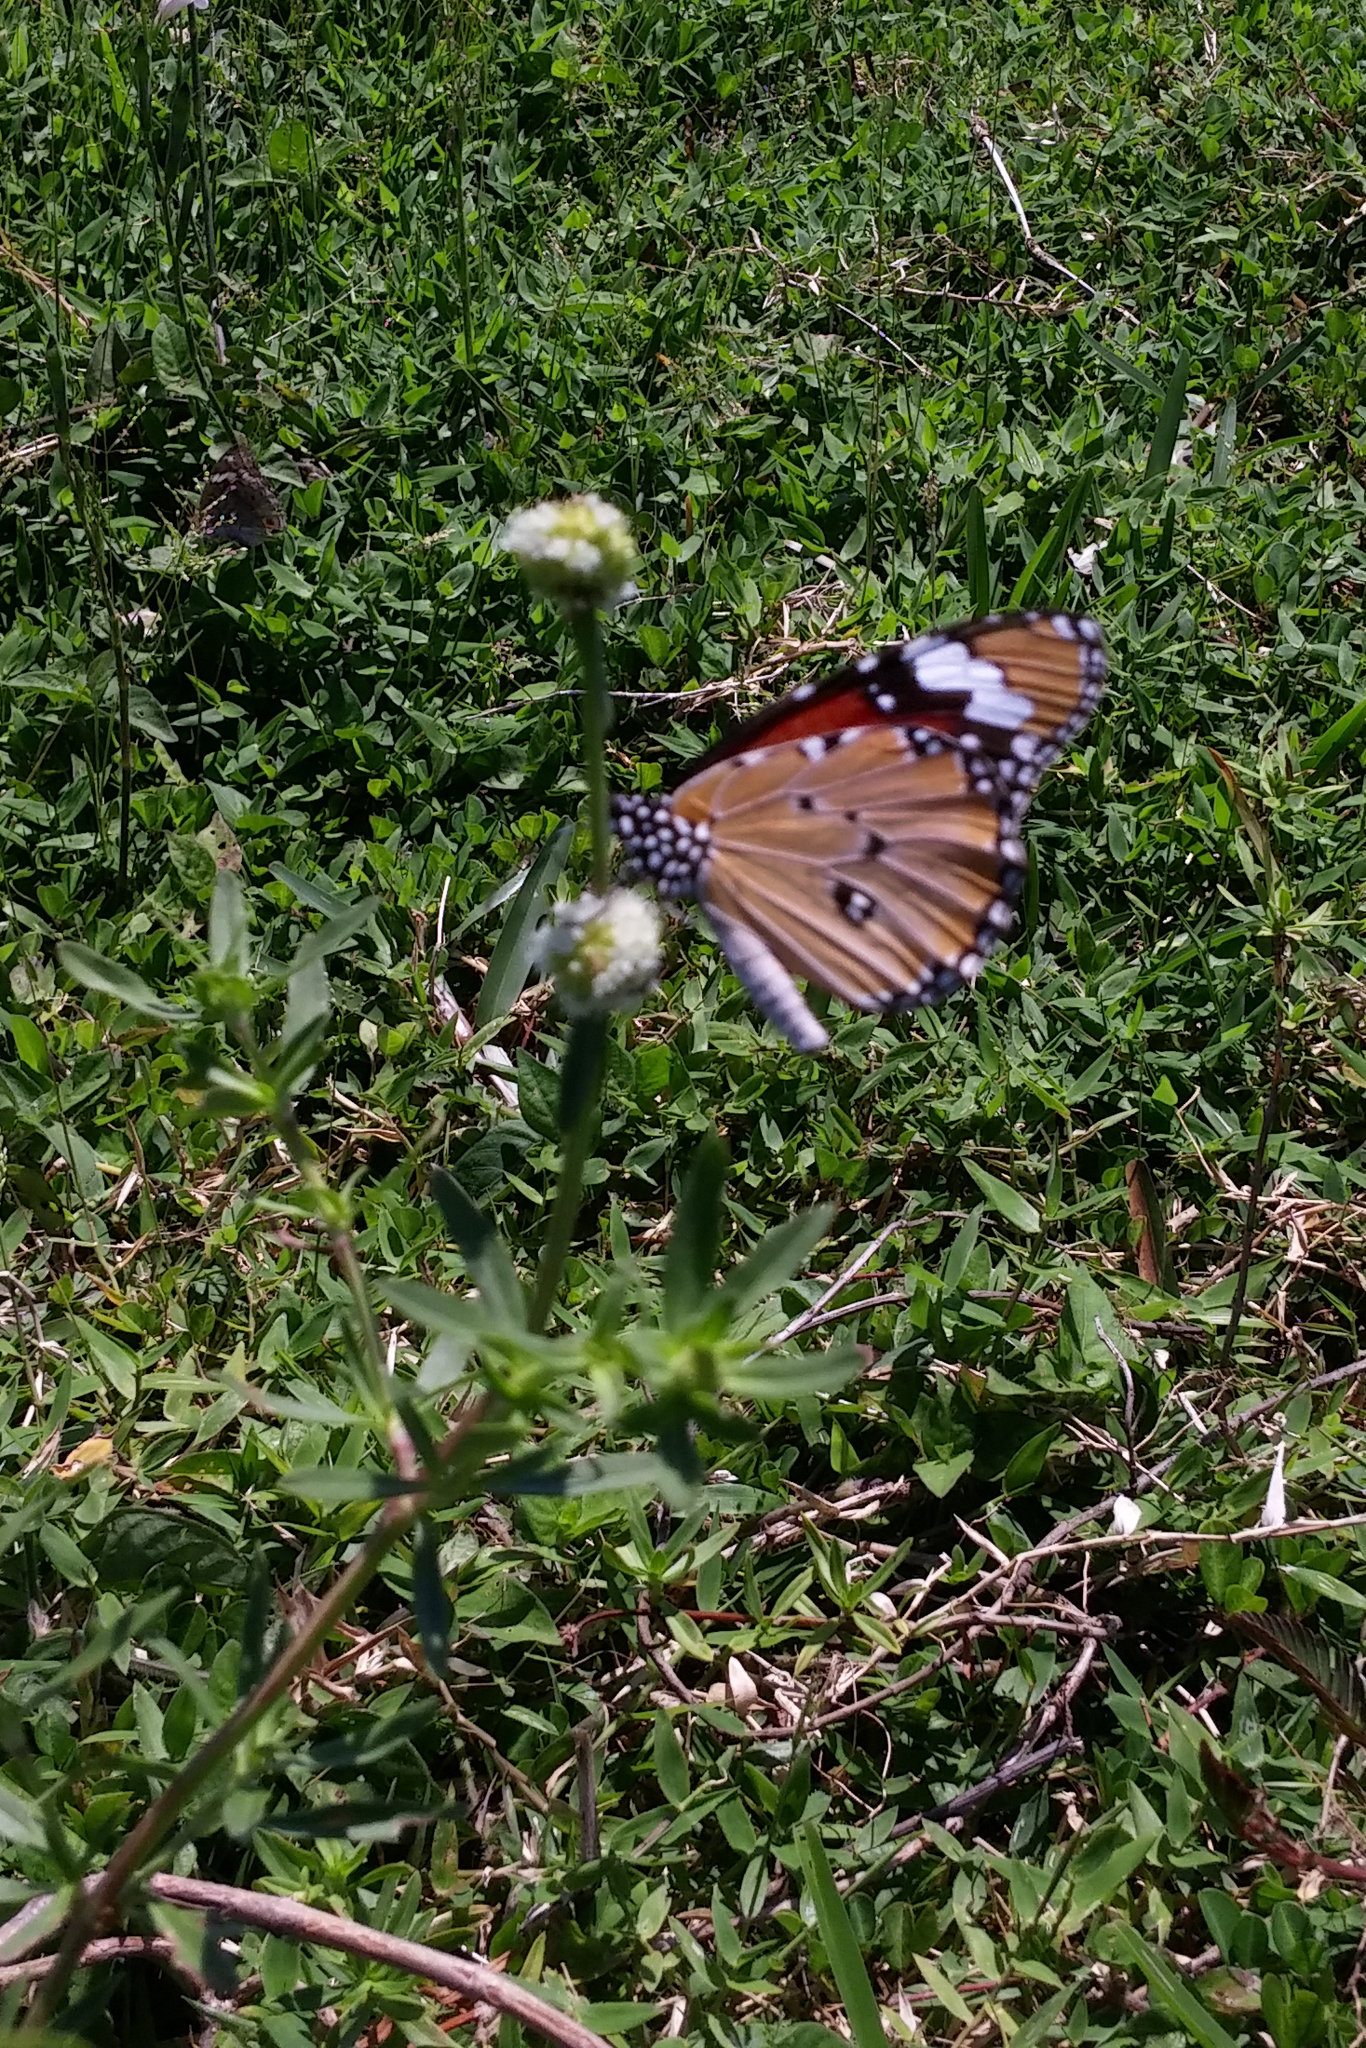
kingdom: Animalia
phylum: Arthropoda
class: Insecta
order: Lepidoptera
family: Nymphalidae
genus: Danaus
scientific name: Danaus chrysippus
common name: Plain tiger
